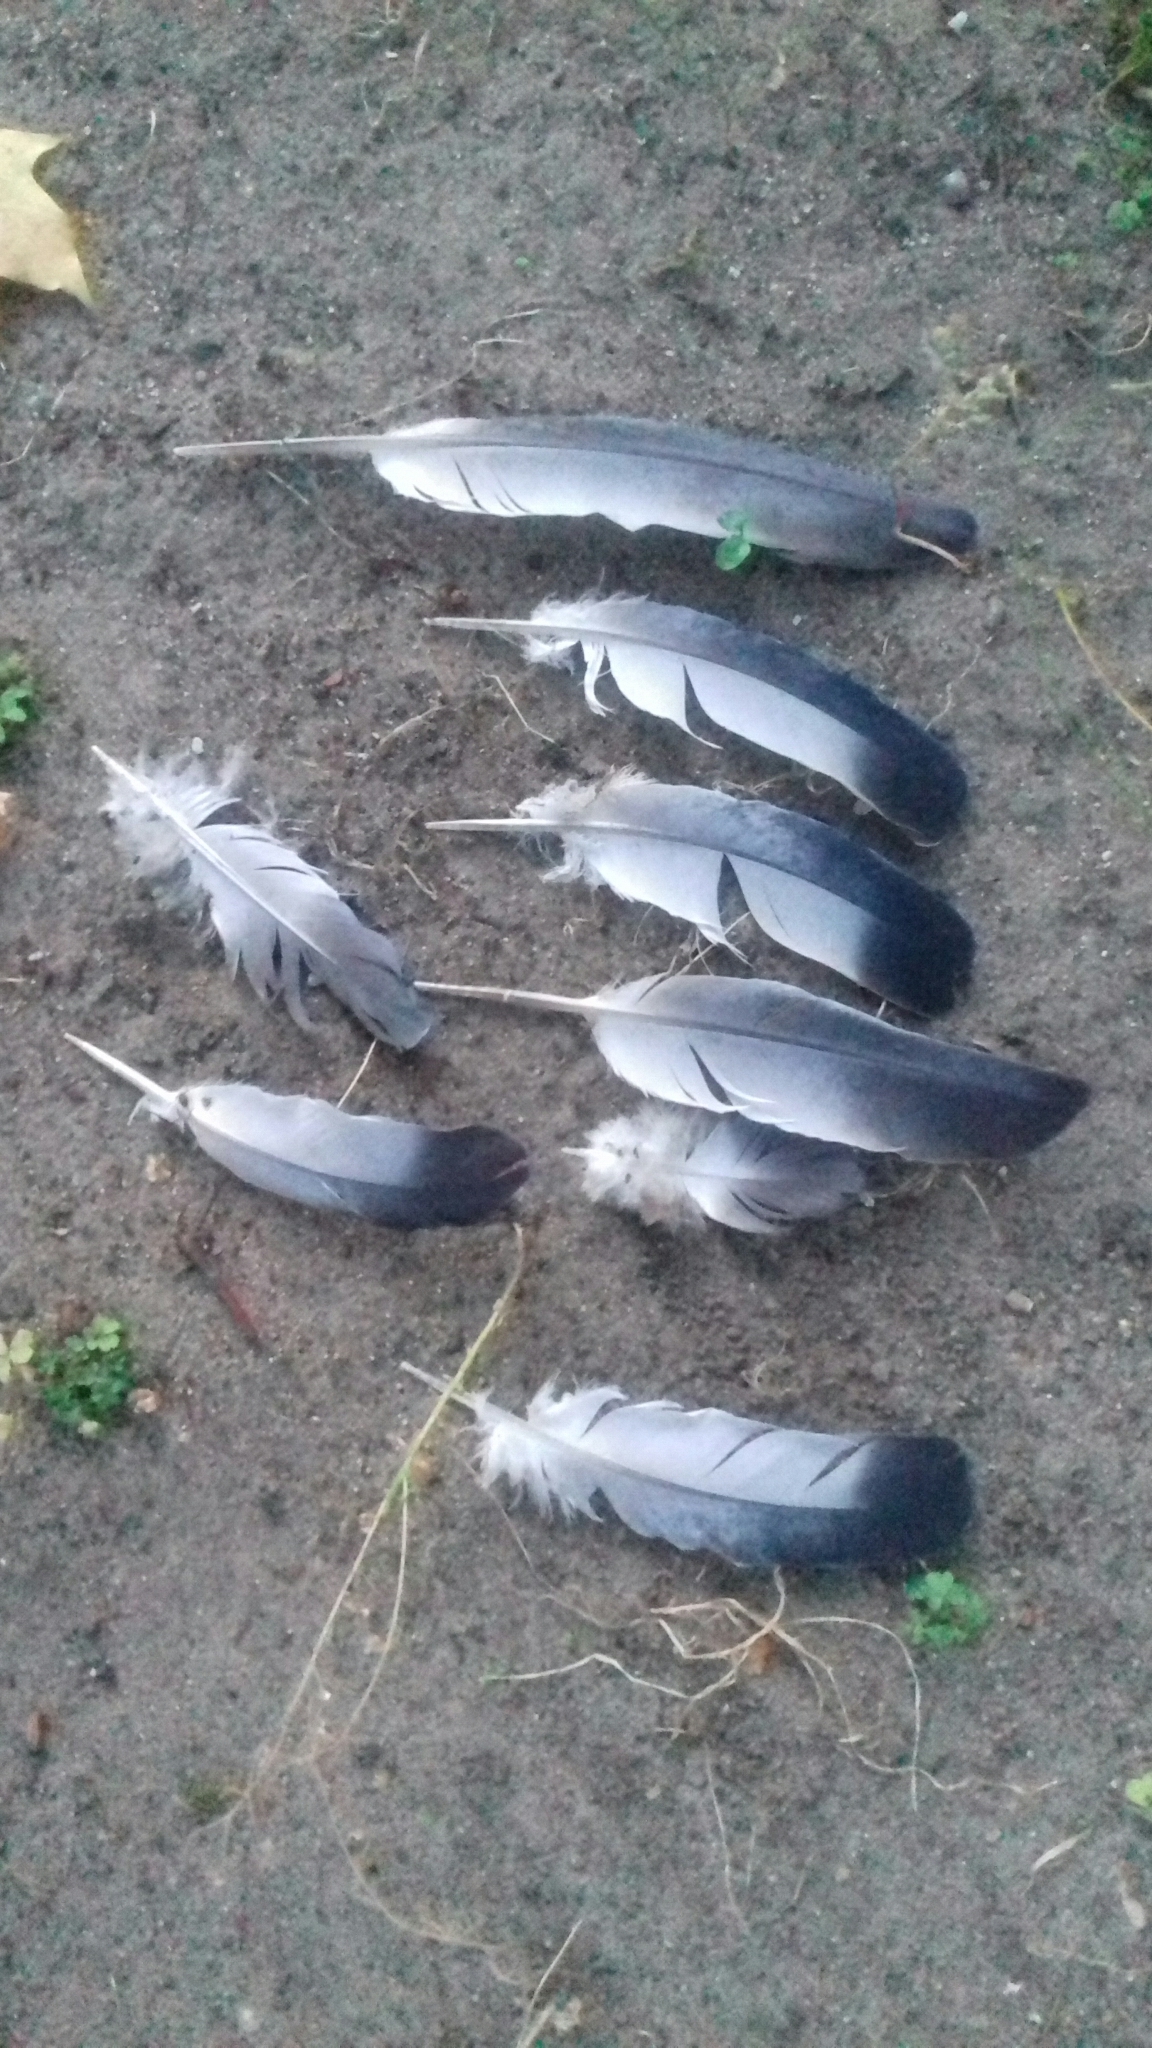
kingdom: Animalia
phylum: Chordata
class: Aves
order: Columbiformes
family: Columbidae
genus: Columba
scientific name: Columba livia
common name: Rock pigeon
